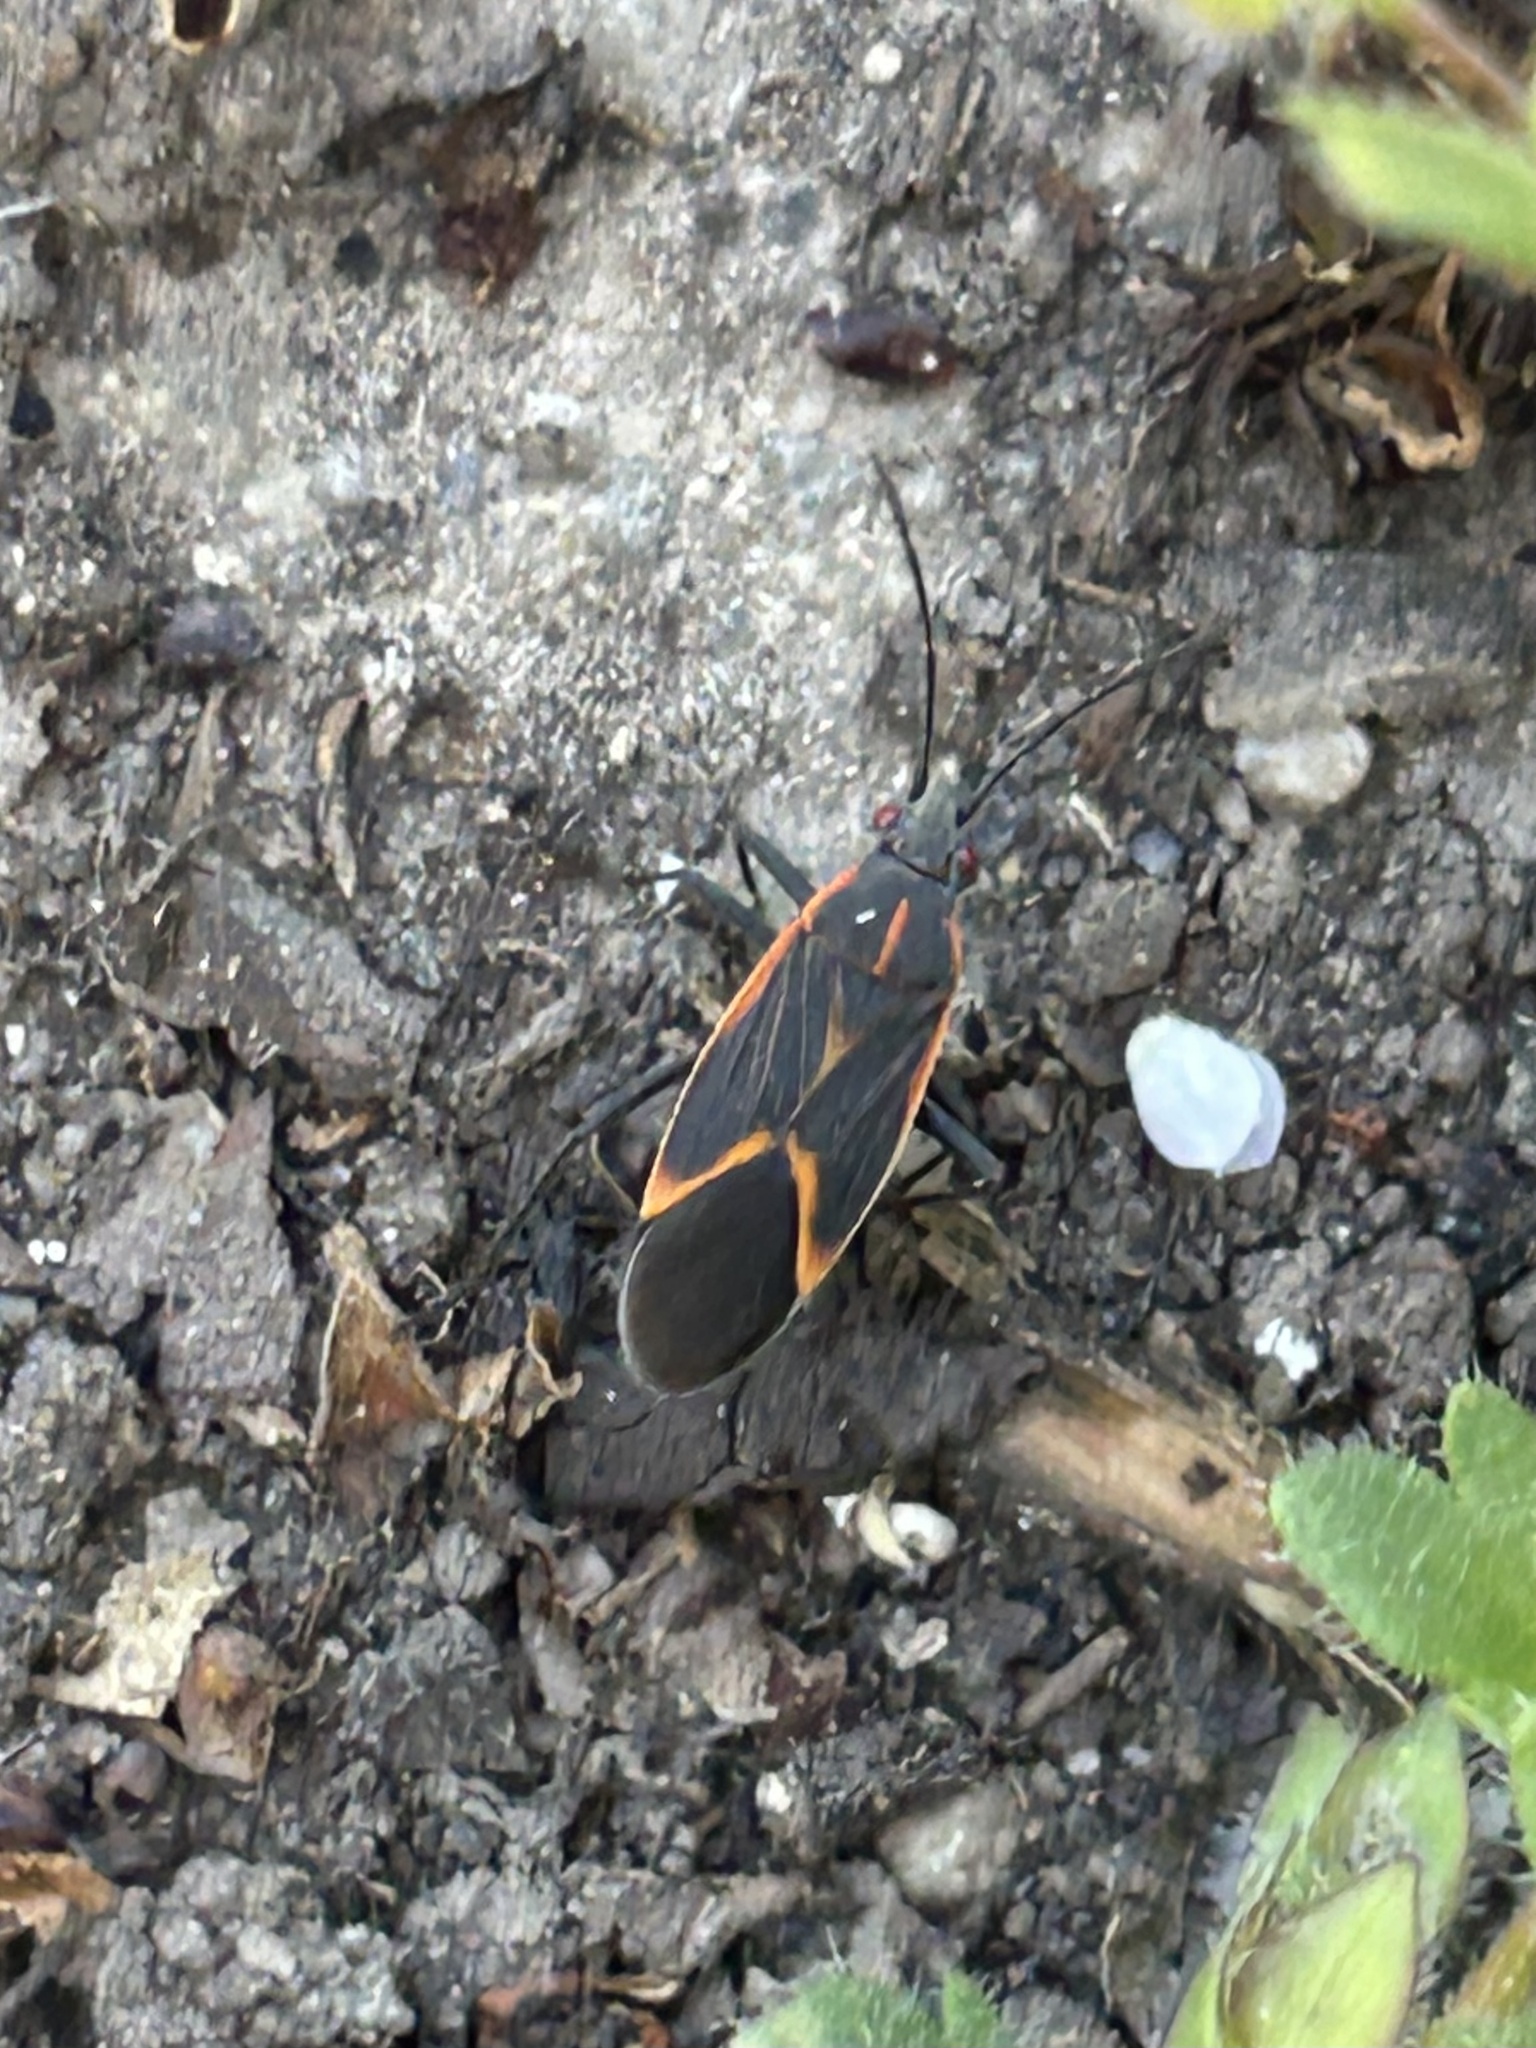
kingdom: Animalia
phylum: Arthropoda
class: Insecta
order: Hemiptera
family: Rhopalidae
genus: Boisea
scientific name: Boisea trivittata
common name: Boxelder bug
